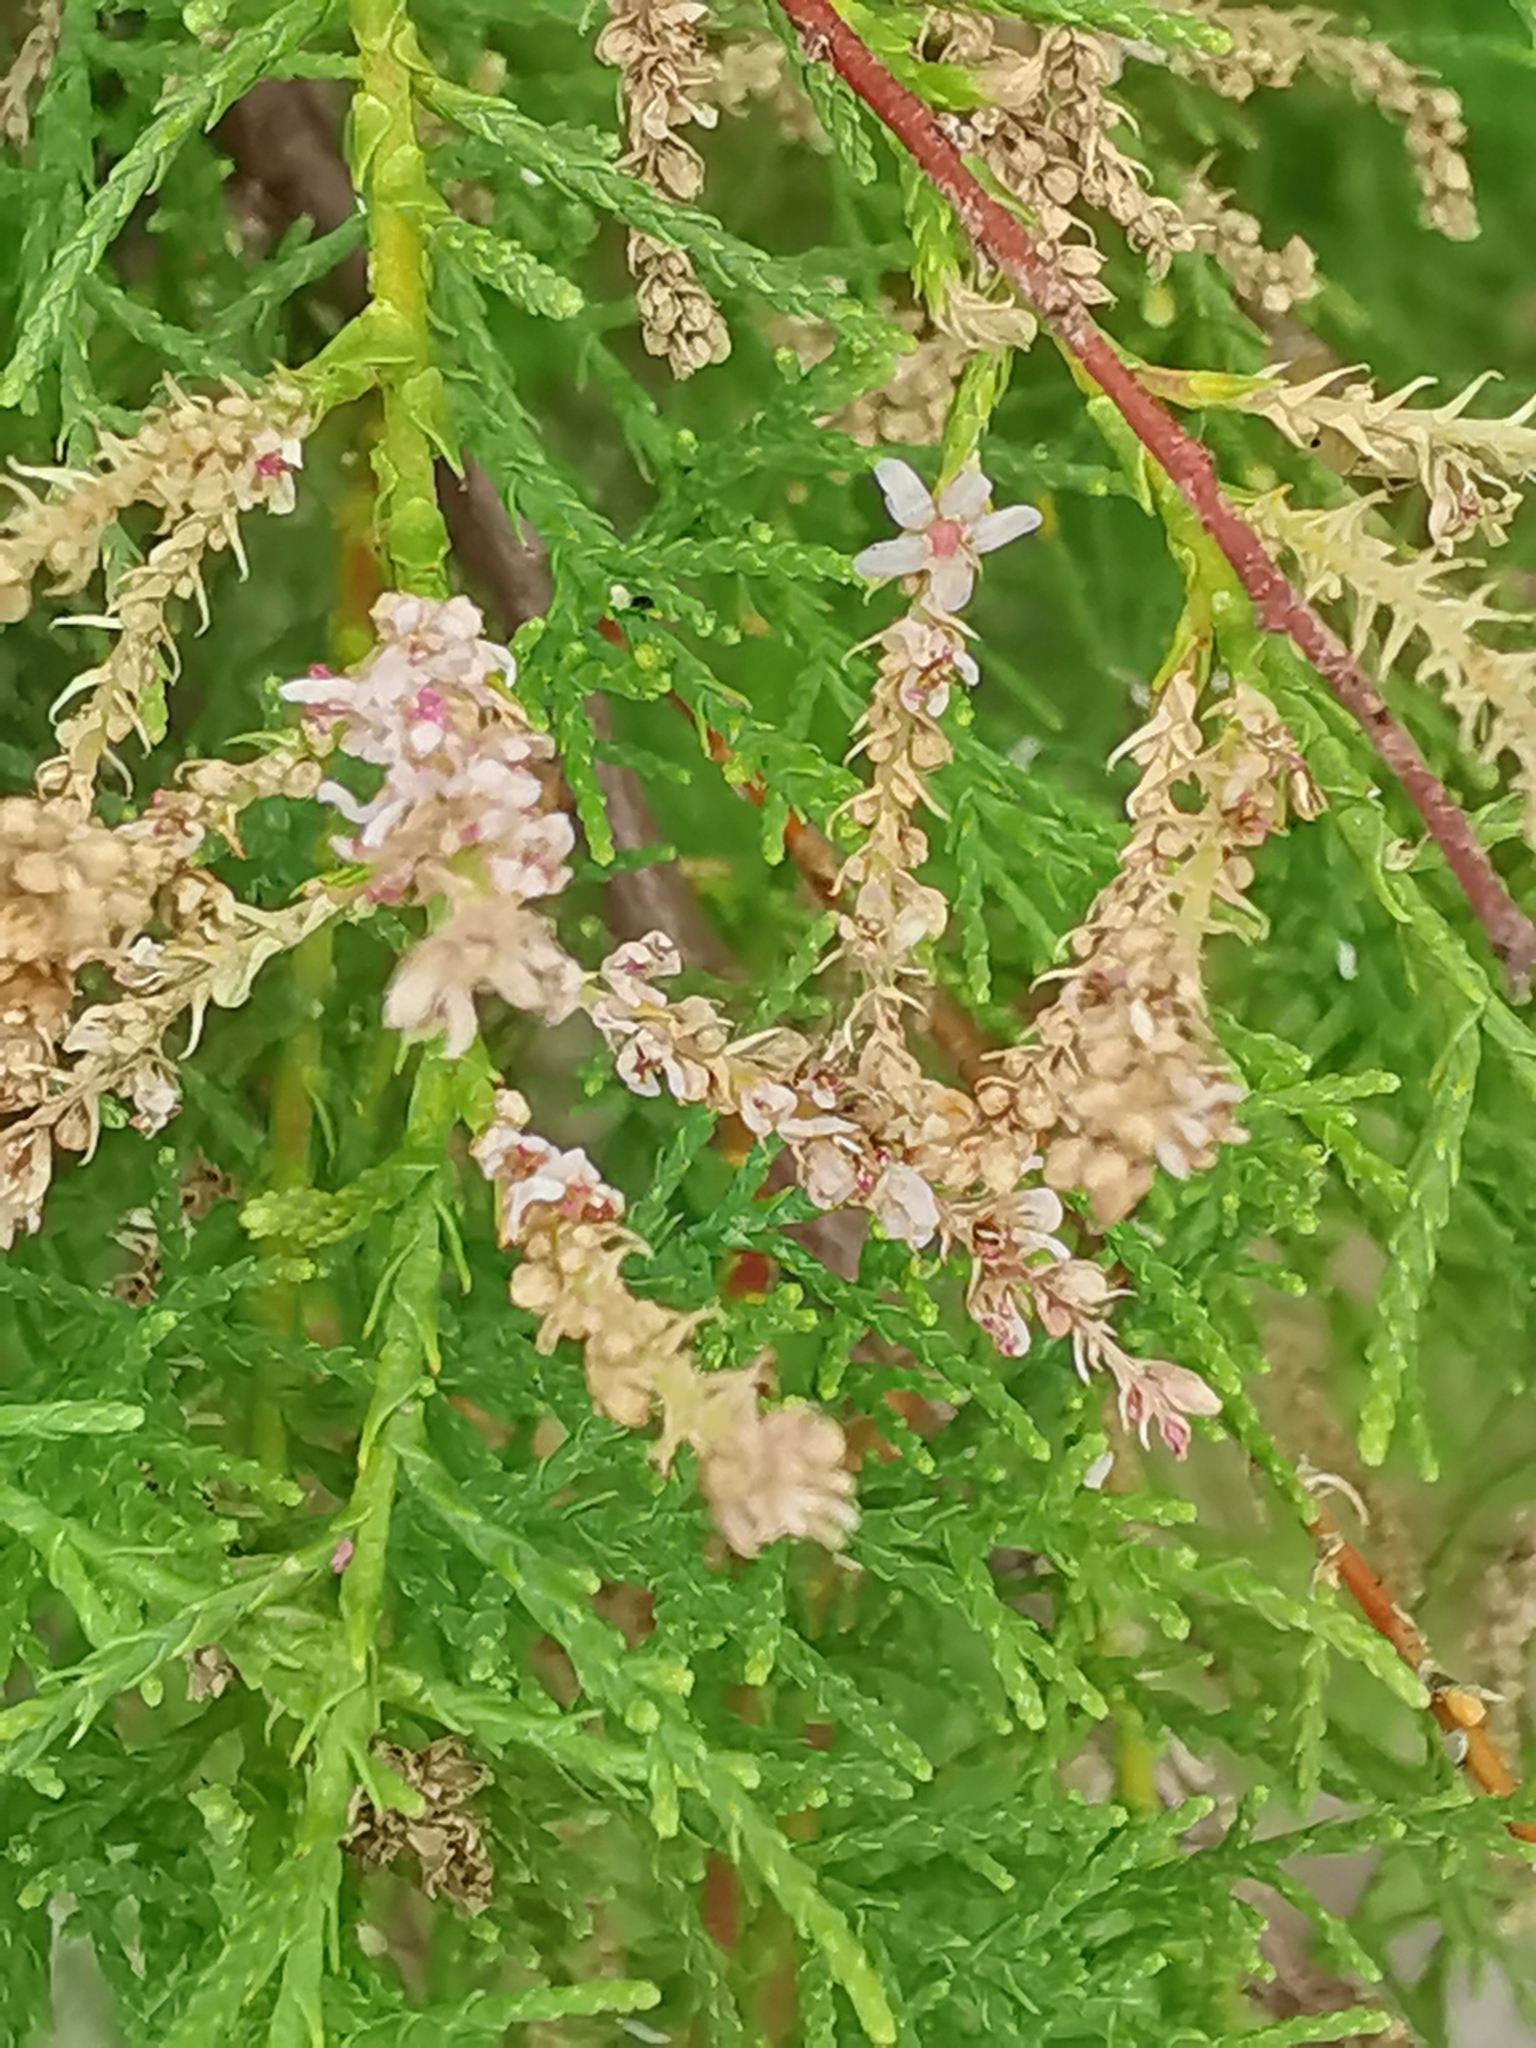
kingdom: Plantae
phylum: Tracheophyta
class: Magnoliopsida
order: Caryophyllales
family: Tamaricaceae
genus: Tamarix
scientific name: Tamarix gallica
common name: Tamarisk
